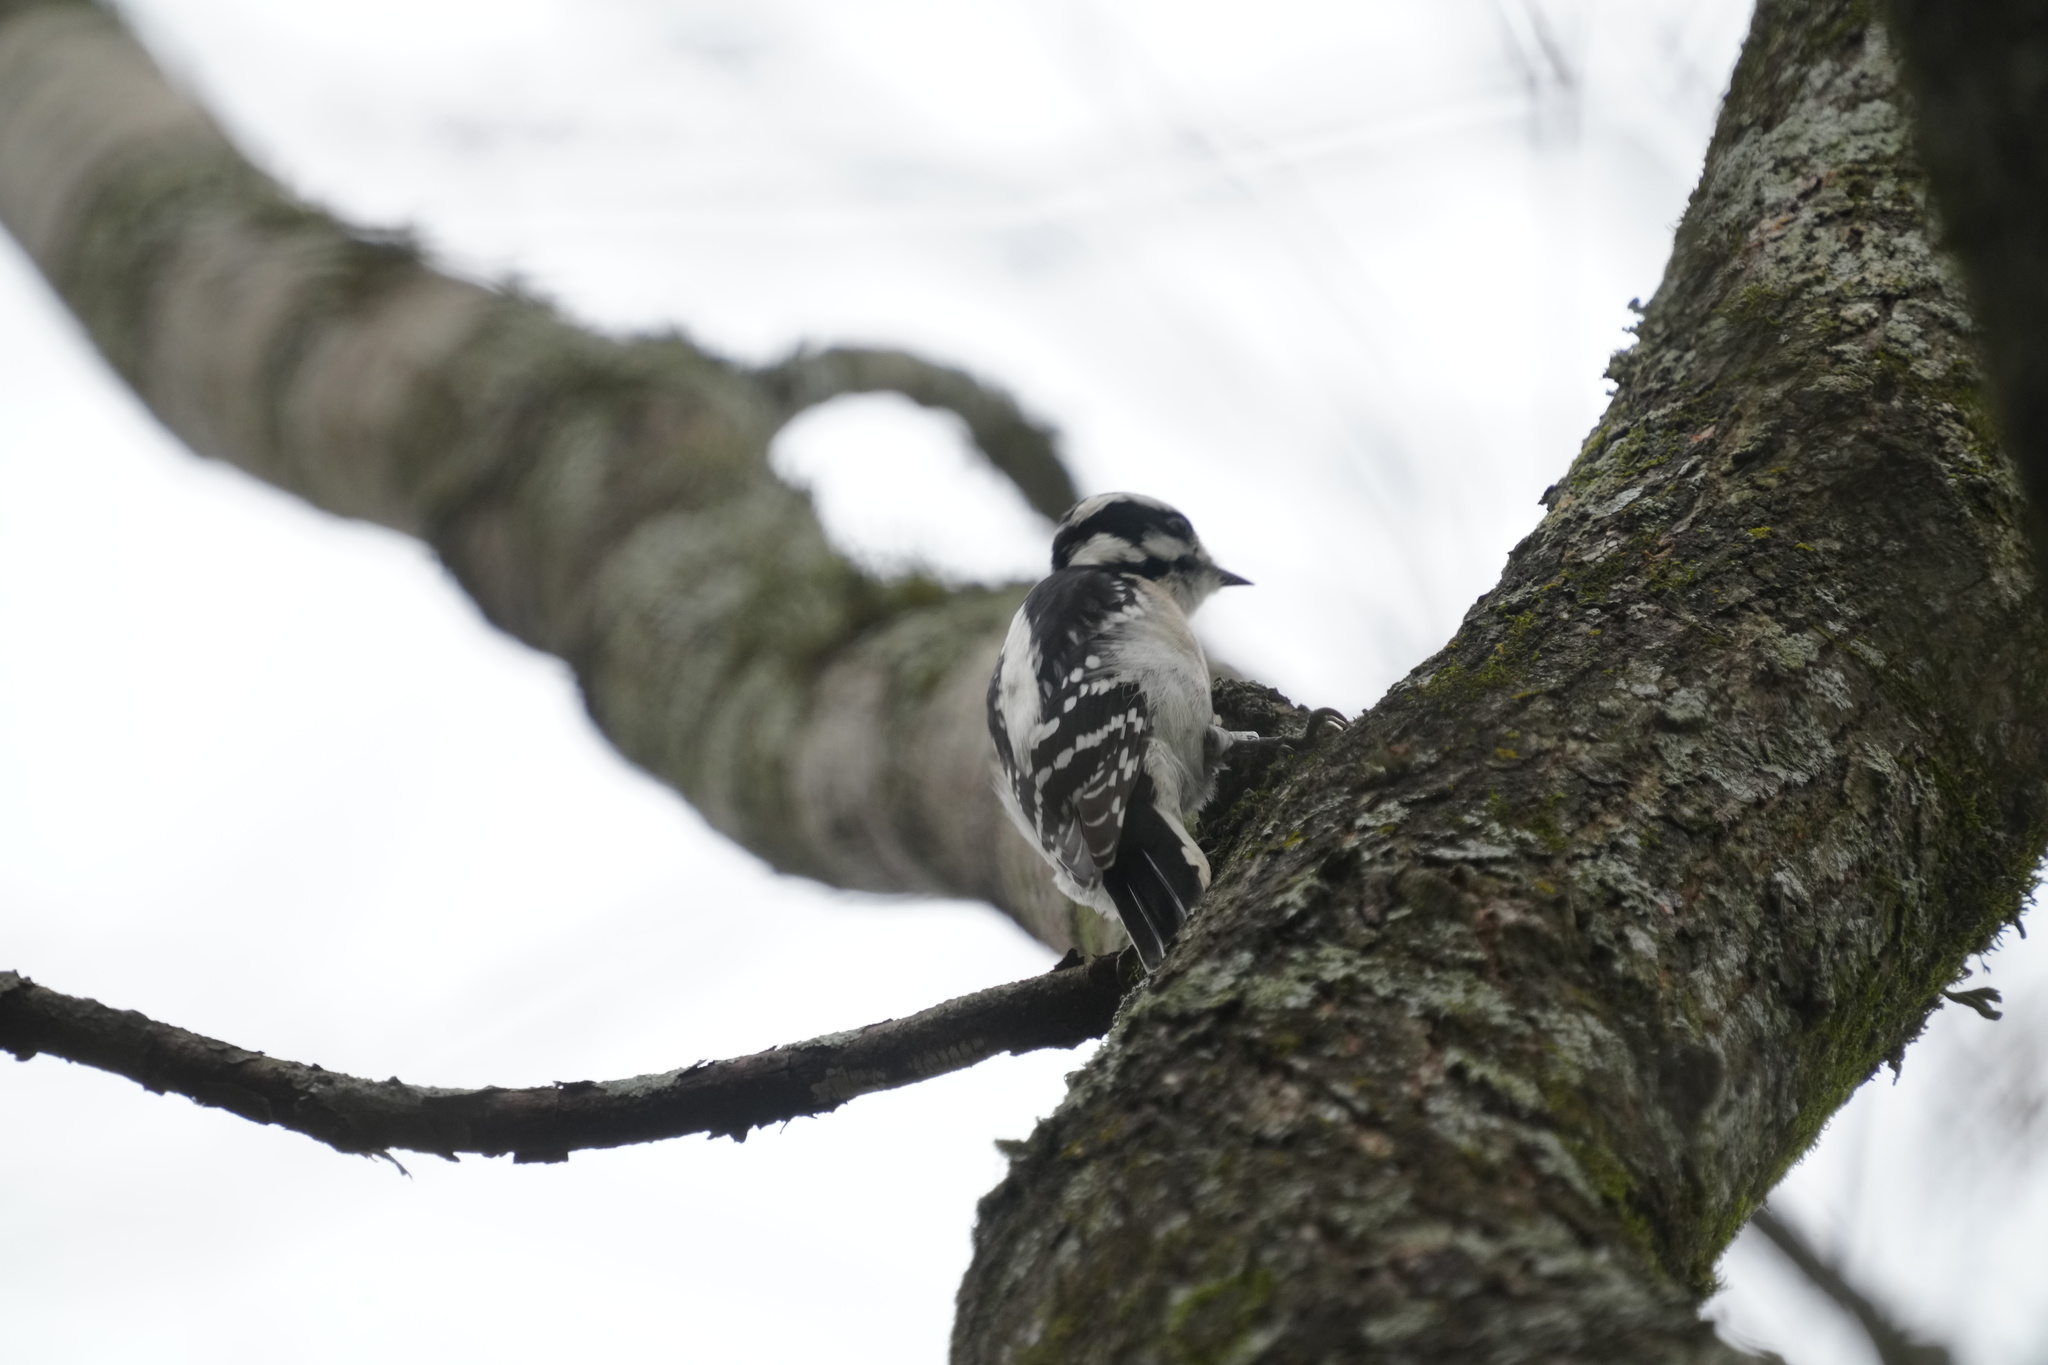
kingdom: Animalia
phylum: Chordata
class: Aves
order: Piciformes
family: Picidae
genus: Dryobates
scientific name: Dryobates pubescens
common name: Downy woodpecker
